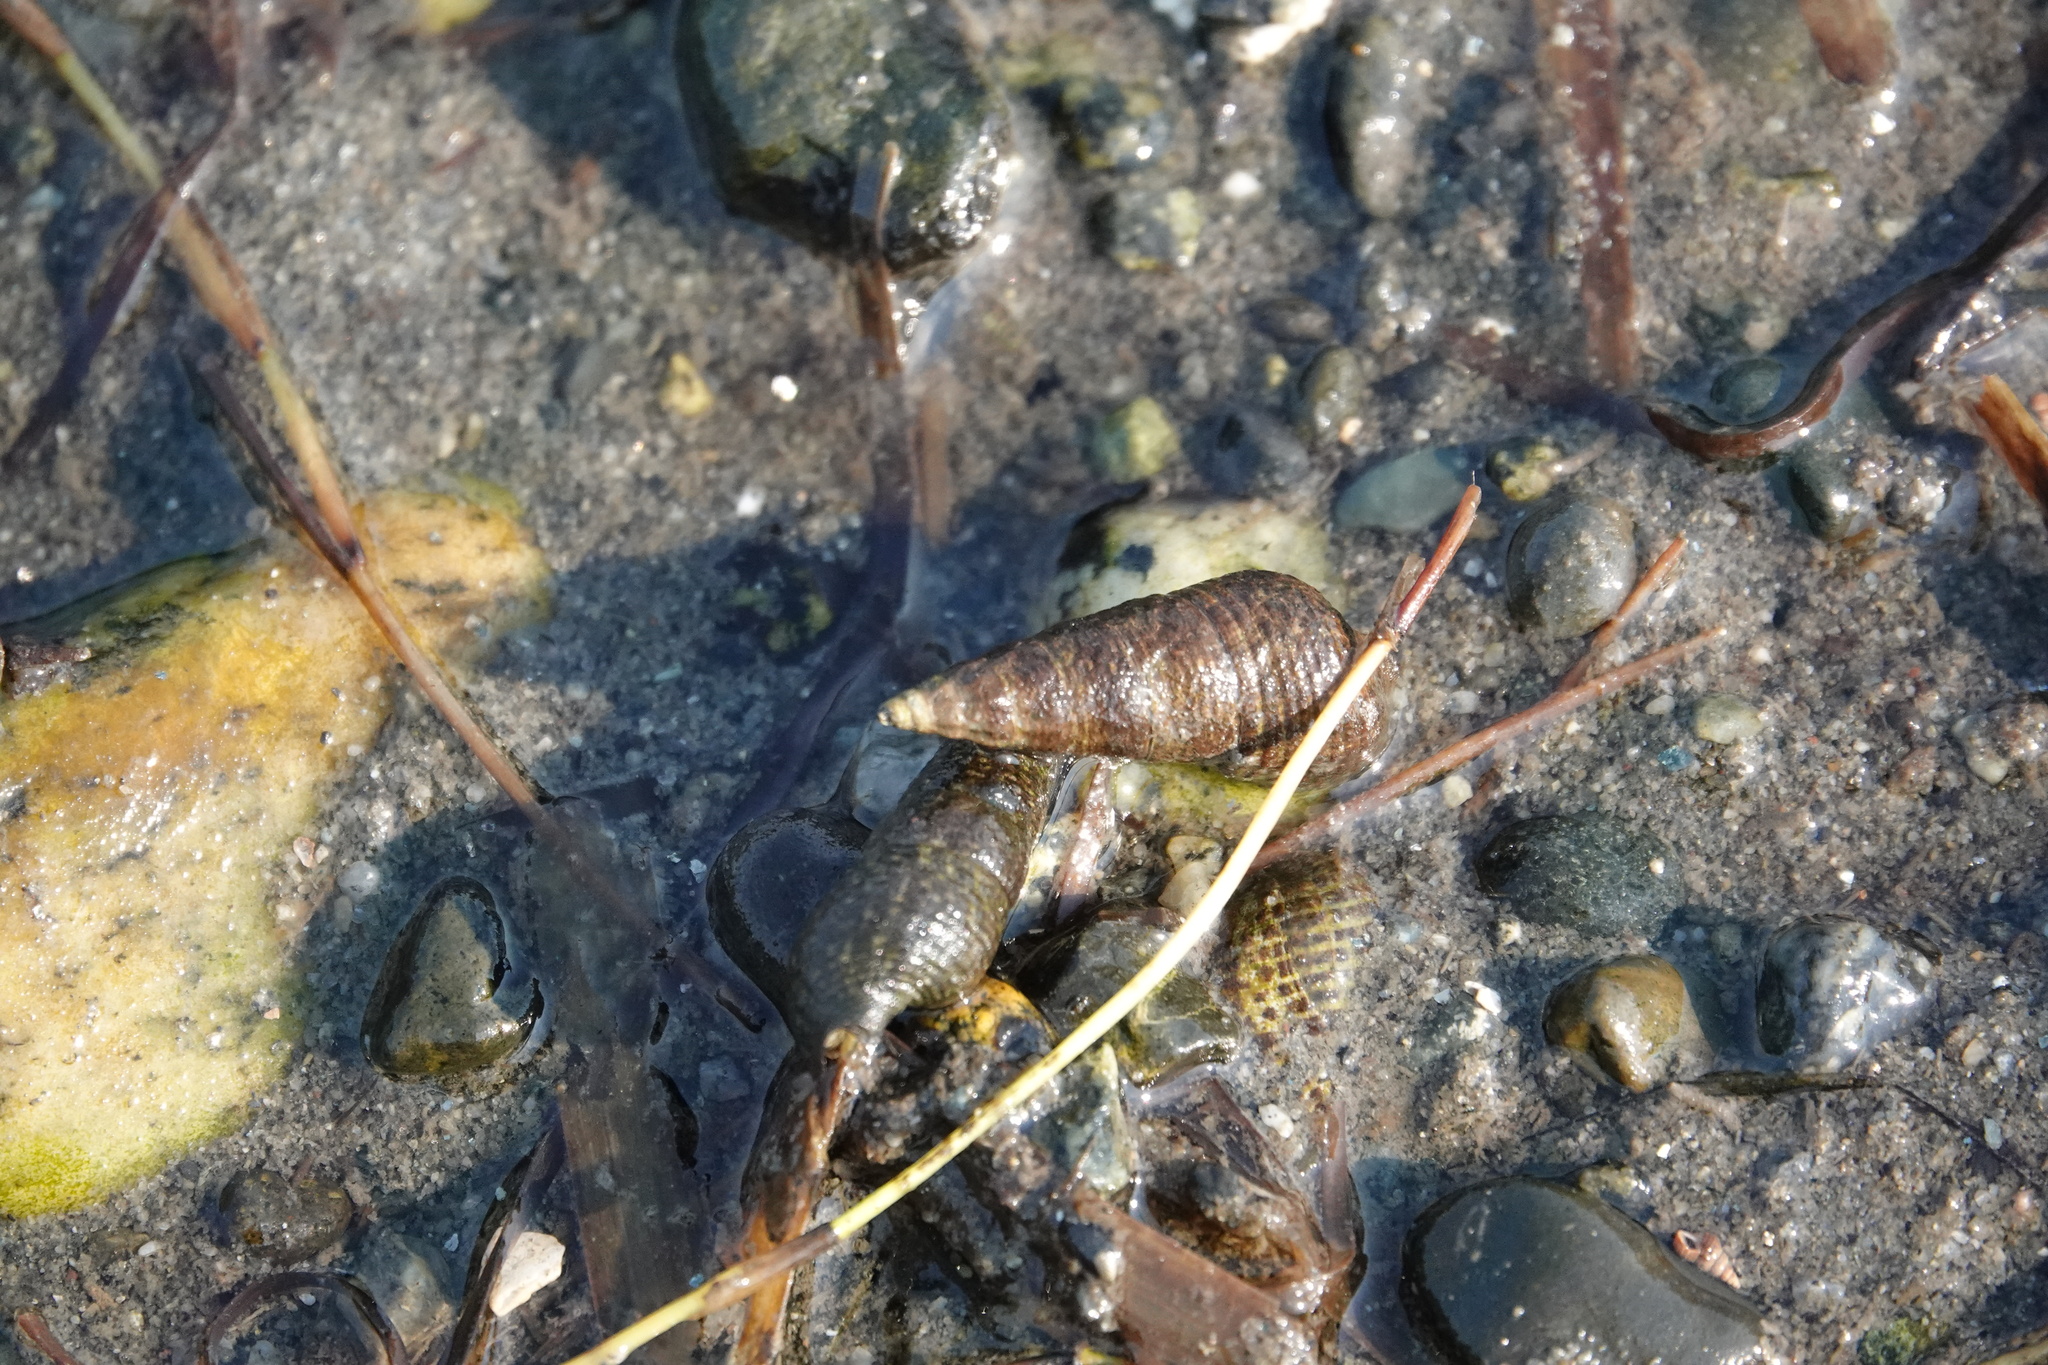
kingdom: Animalia
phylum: Mollusca
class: Gastropoda
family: Batillariidae
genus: Batillaria
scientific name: Batillaria attramentaria
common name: Japanese false cerith
